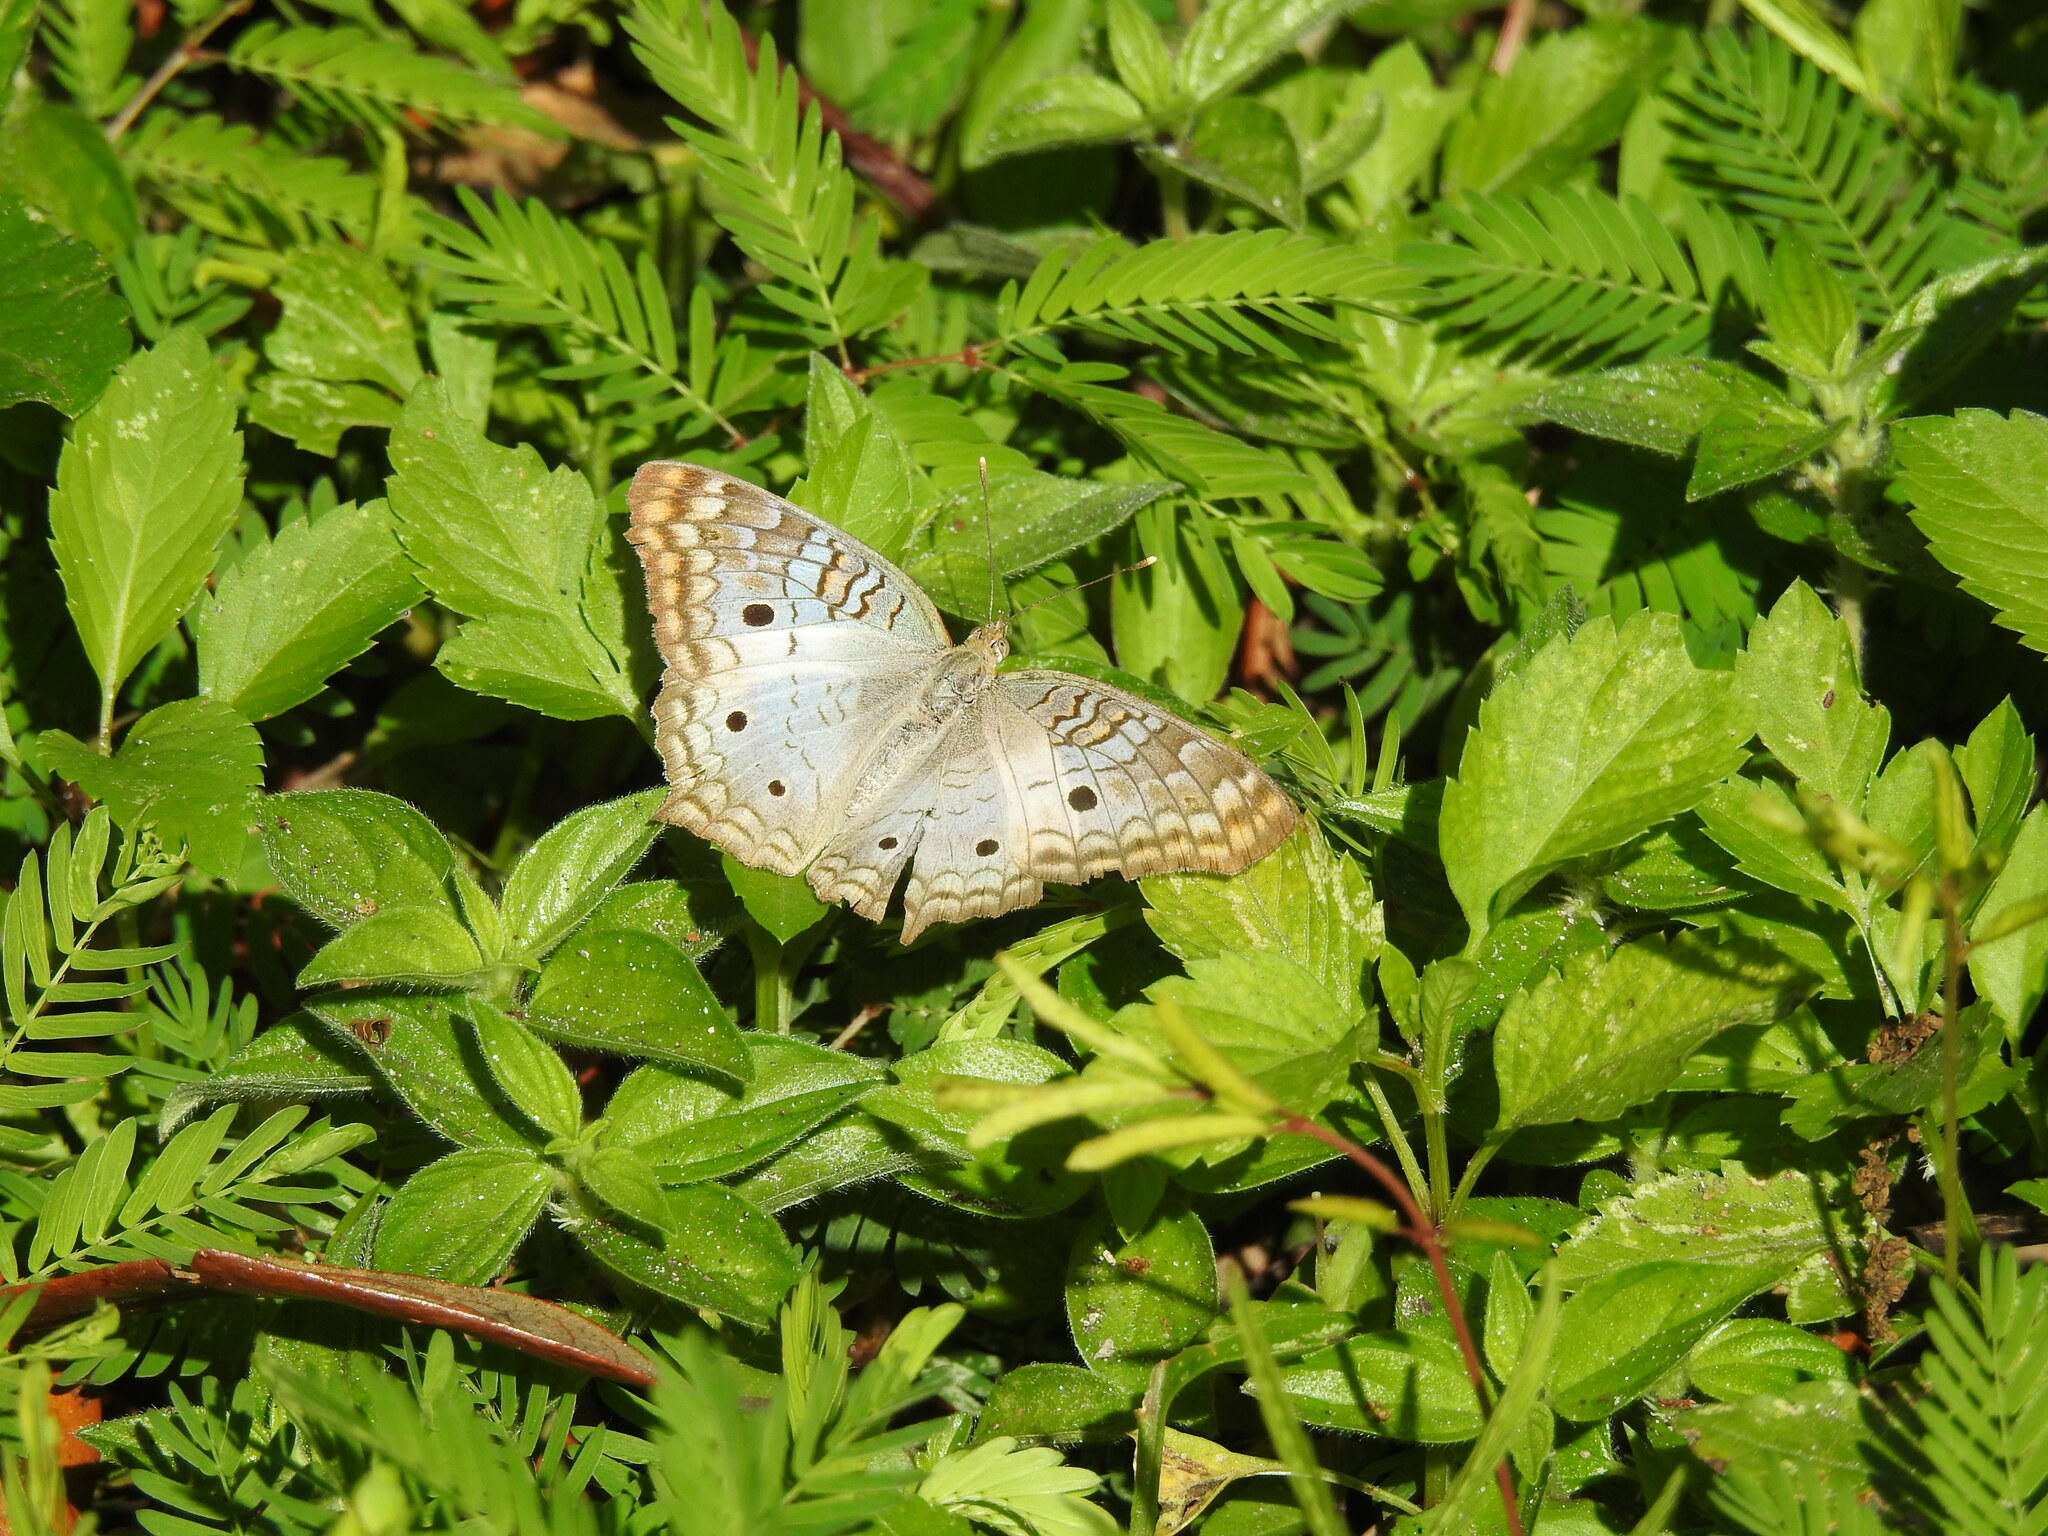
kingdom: Animalia
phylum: Arthropoda
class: Insecta
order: Lepidoptera
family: Nymphalidae
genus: Anartia
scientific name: Anartia jatrophae
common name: White peacock
